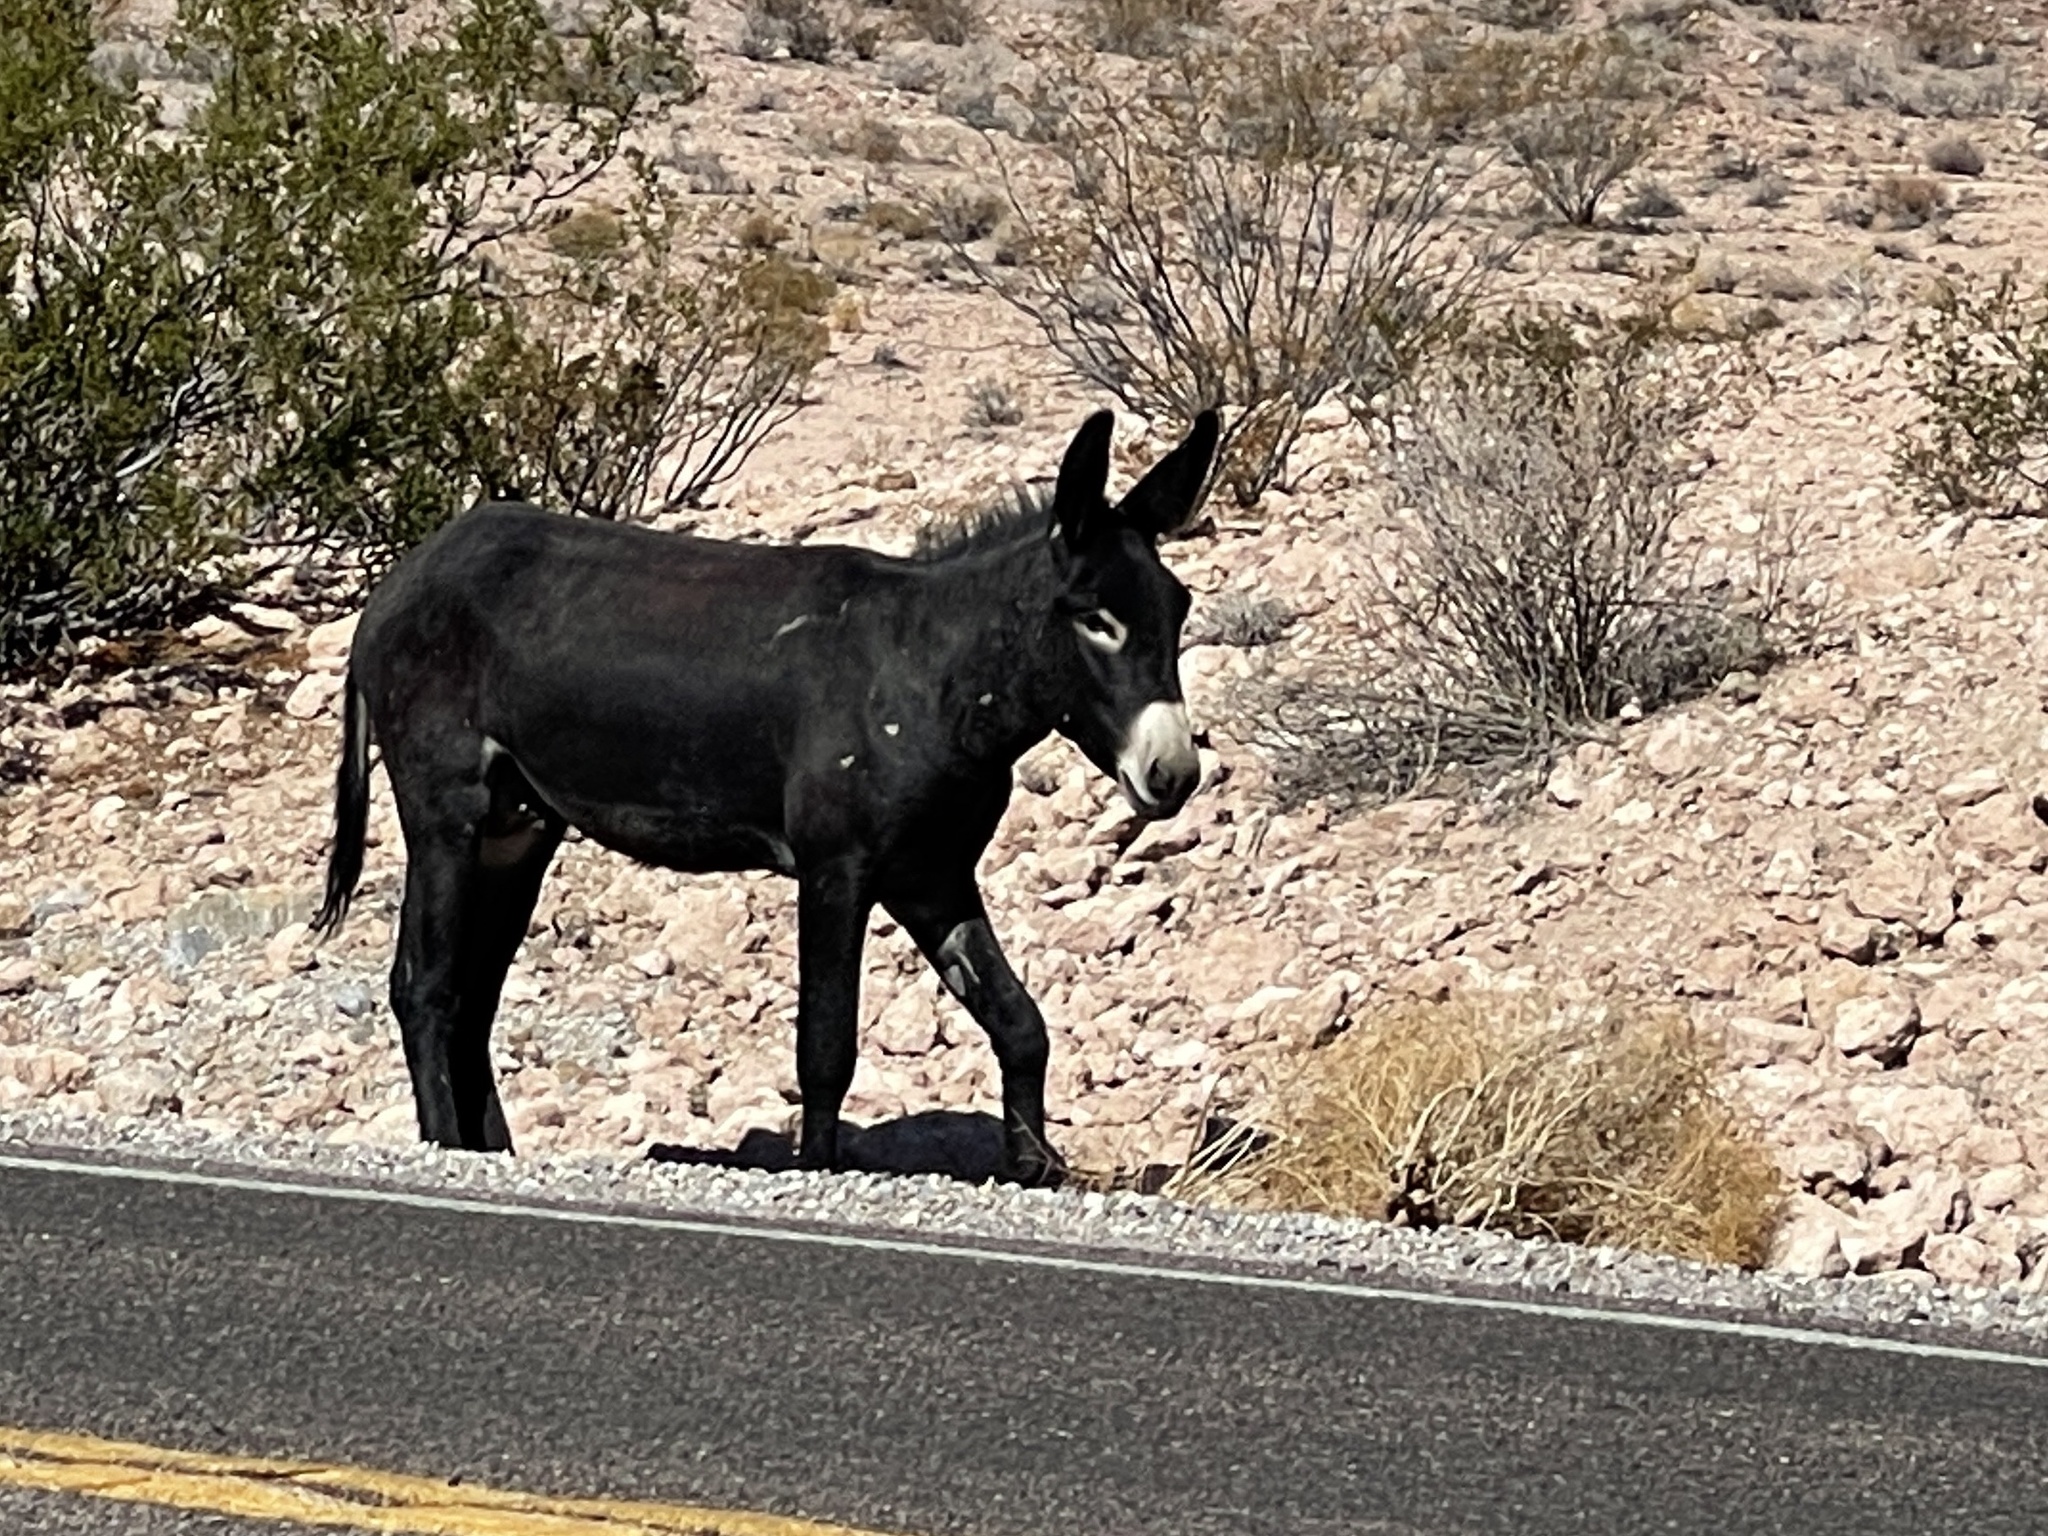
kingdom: Animalia
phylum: Chordata
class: Mammalia
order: Perissodactyla
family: Equidae
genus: Equus
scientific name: Equus asinus
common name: Ass
